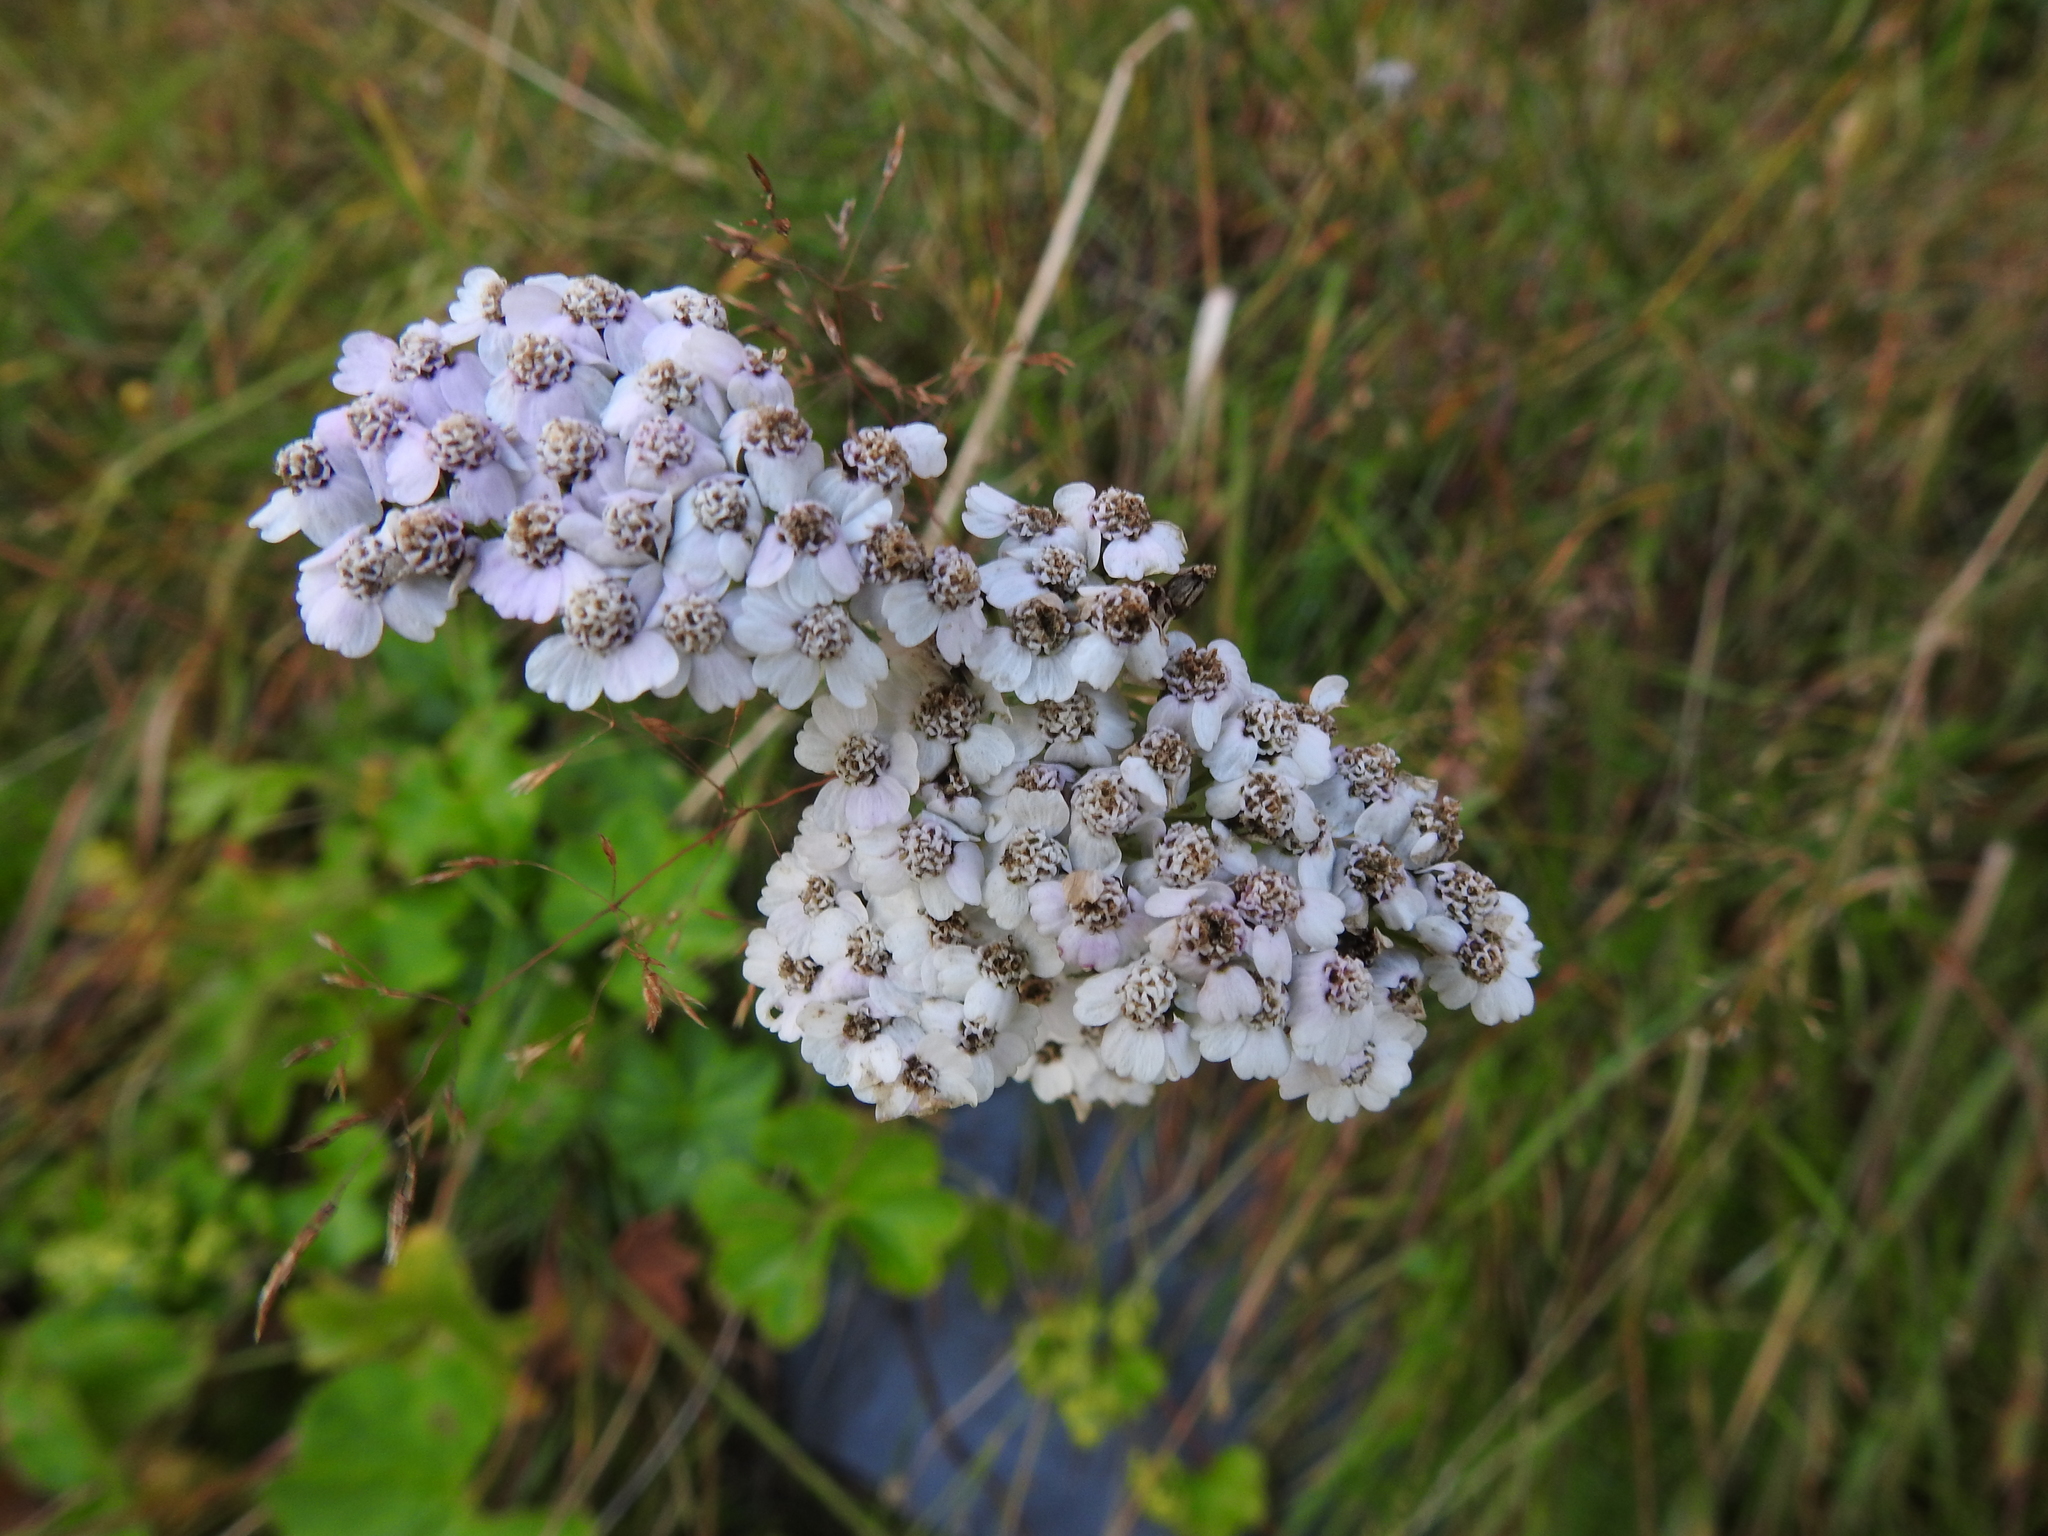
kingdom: Plantae
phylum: Tracheophyta
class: Magnoliopsida
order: Asterales
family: Asteraceae
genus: Achillea
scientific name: Achillea millefolium
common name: Yarrow
